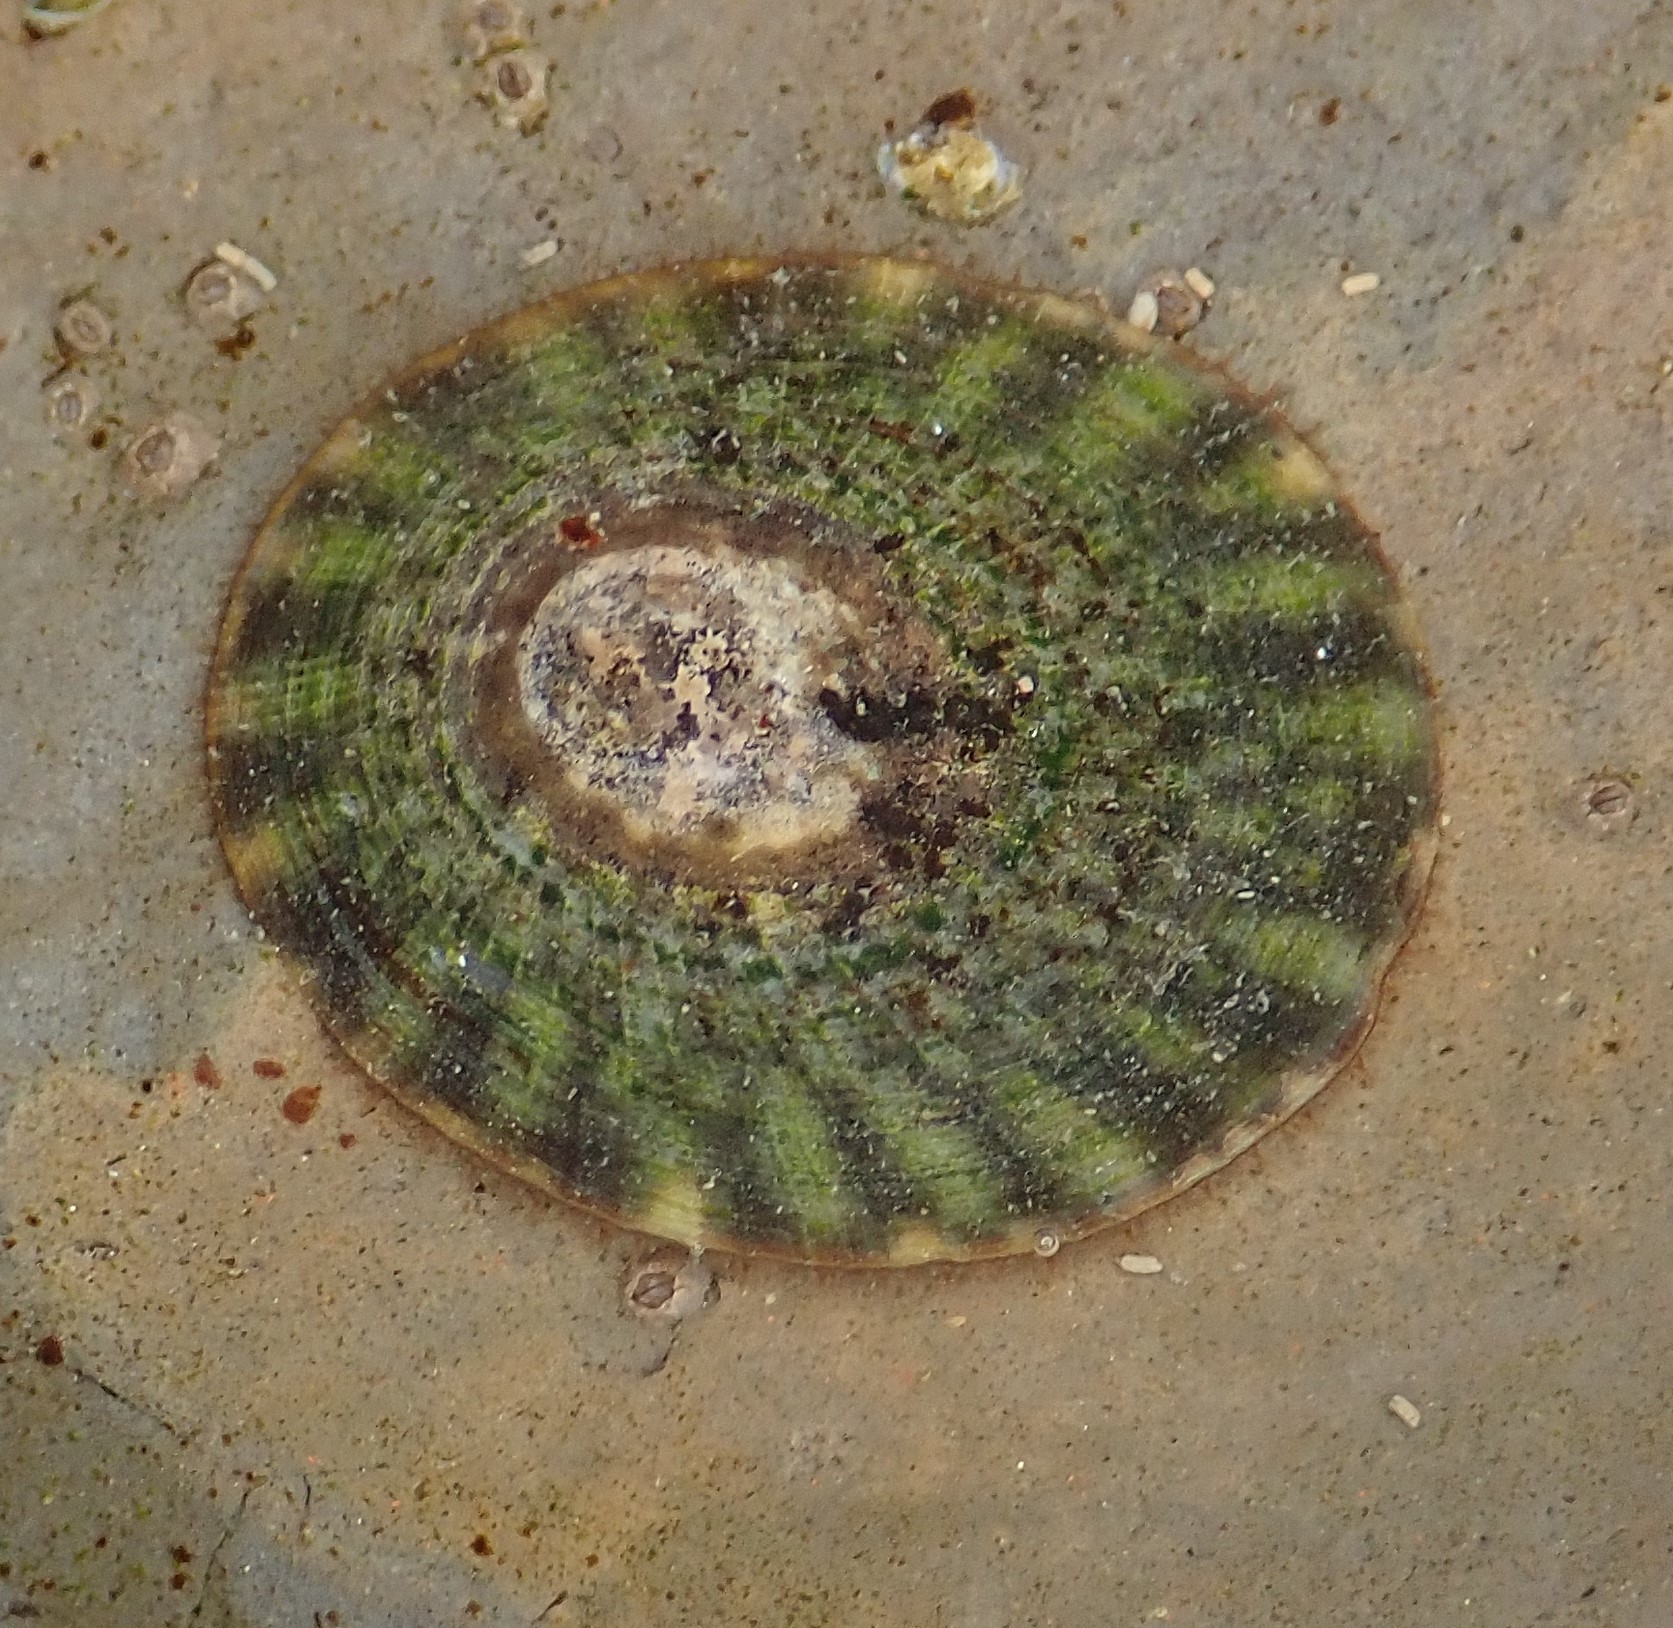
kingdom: Animalia
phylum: Mollusca
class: Gastropoda
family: Lottiidae
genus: Lottia
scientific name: Lottia scutum
